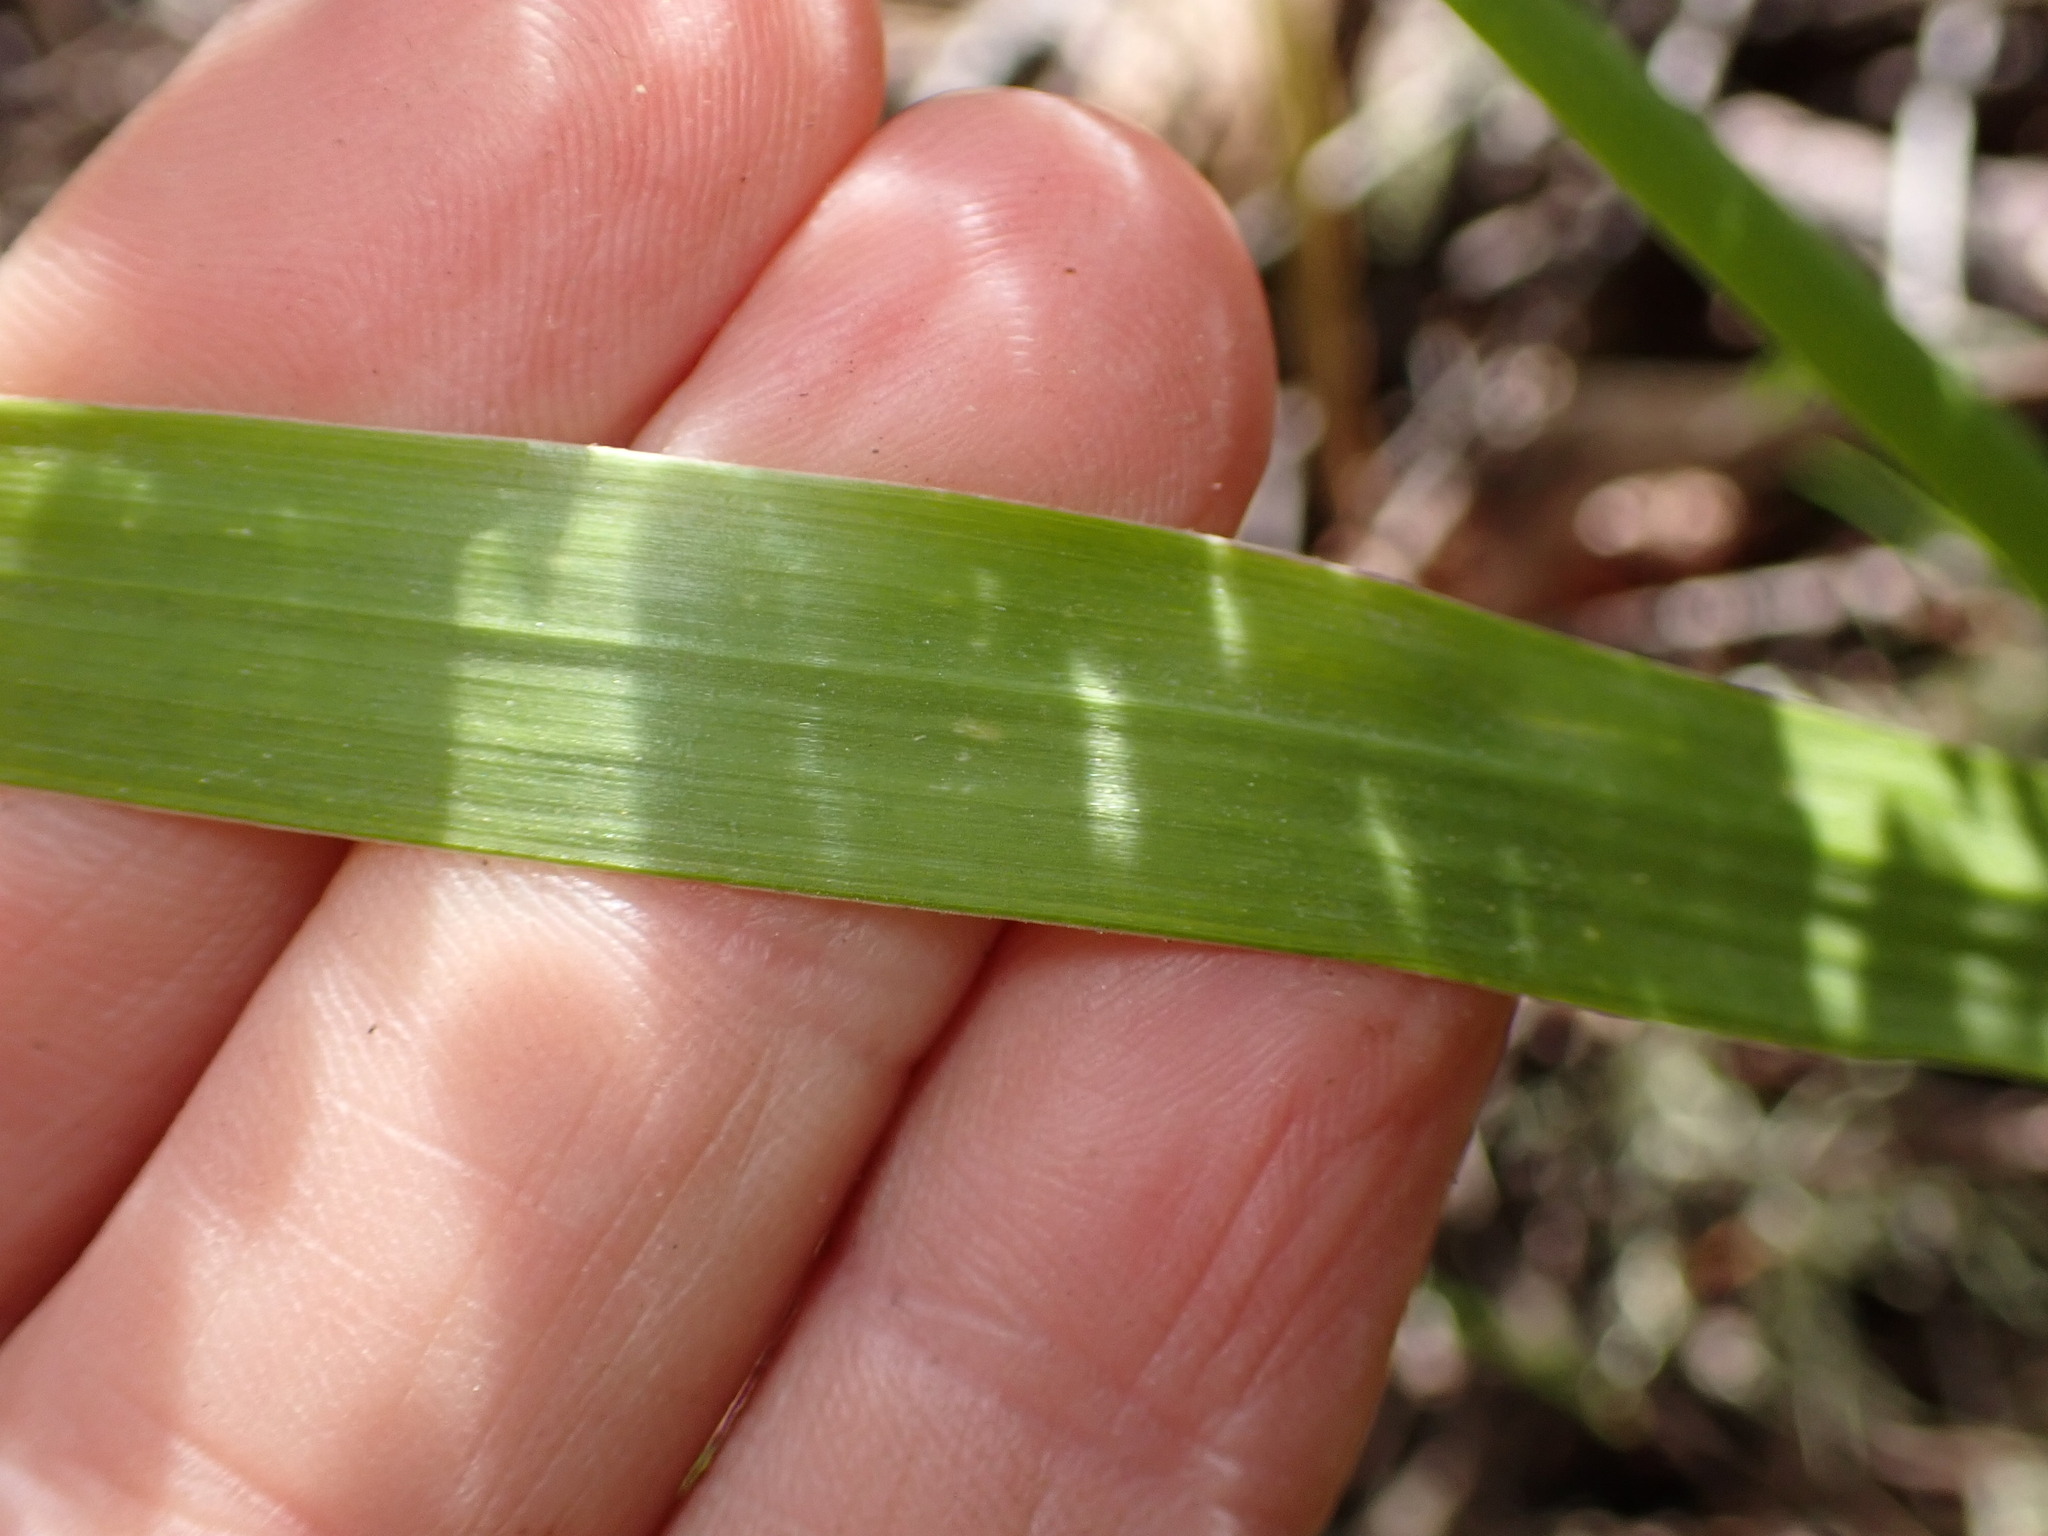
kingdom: Plantae
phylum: Tracheophyta
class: Liliopsida
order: Poales
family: Poaceae
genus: Anthoxanthum
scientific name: Anthoxanthum occidentale
